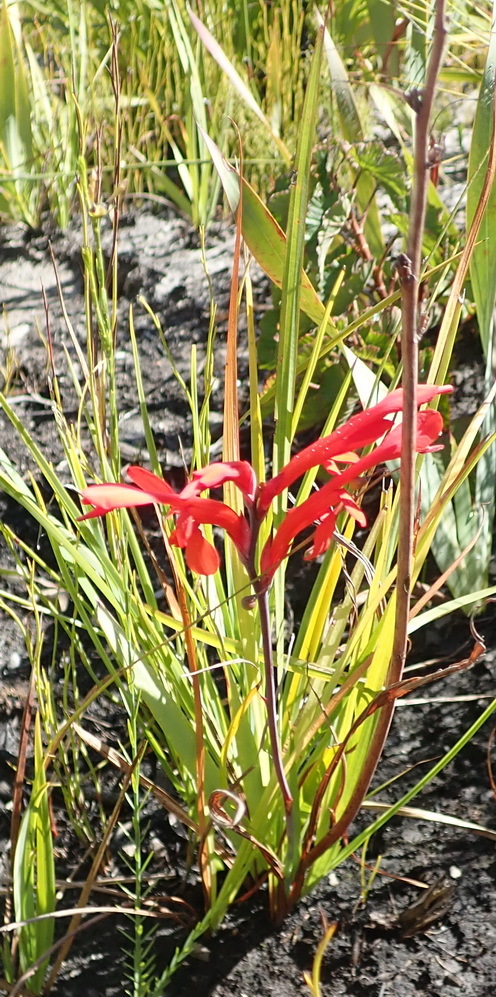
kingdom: Plantae
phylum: Tracheophyta
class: Liliopsida
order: Asparagales
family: Iridaceae
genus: Tritoniopsis
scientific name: Tritoniopsis caffra
